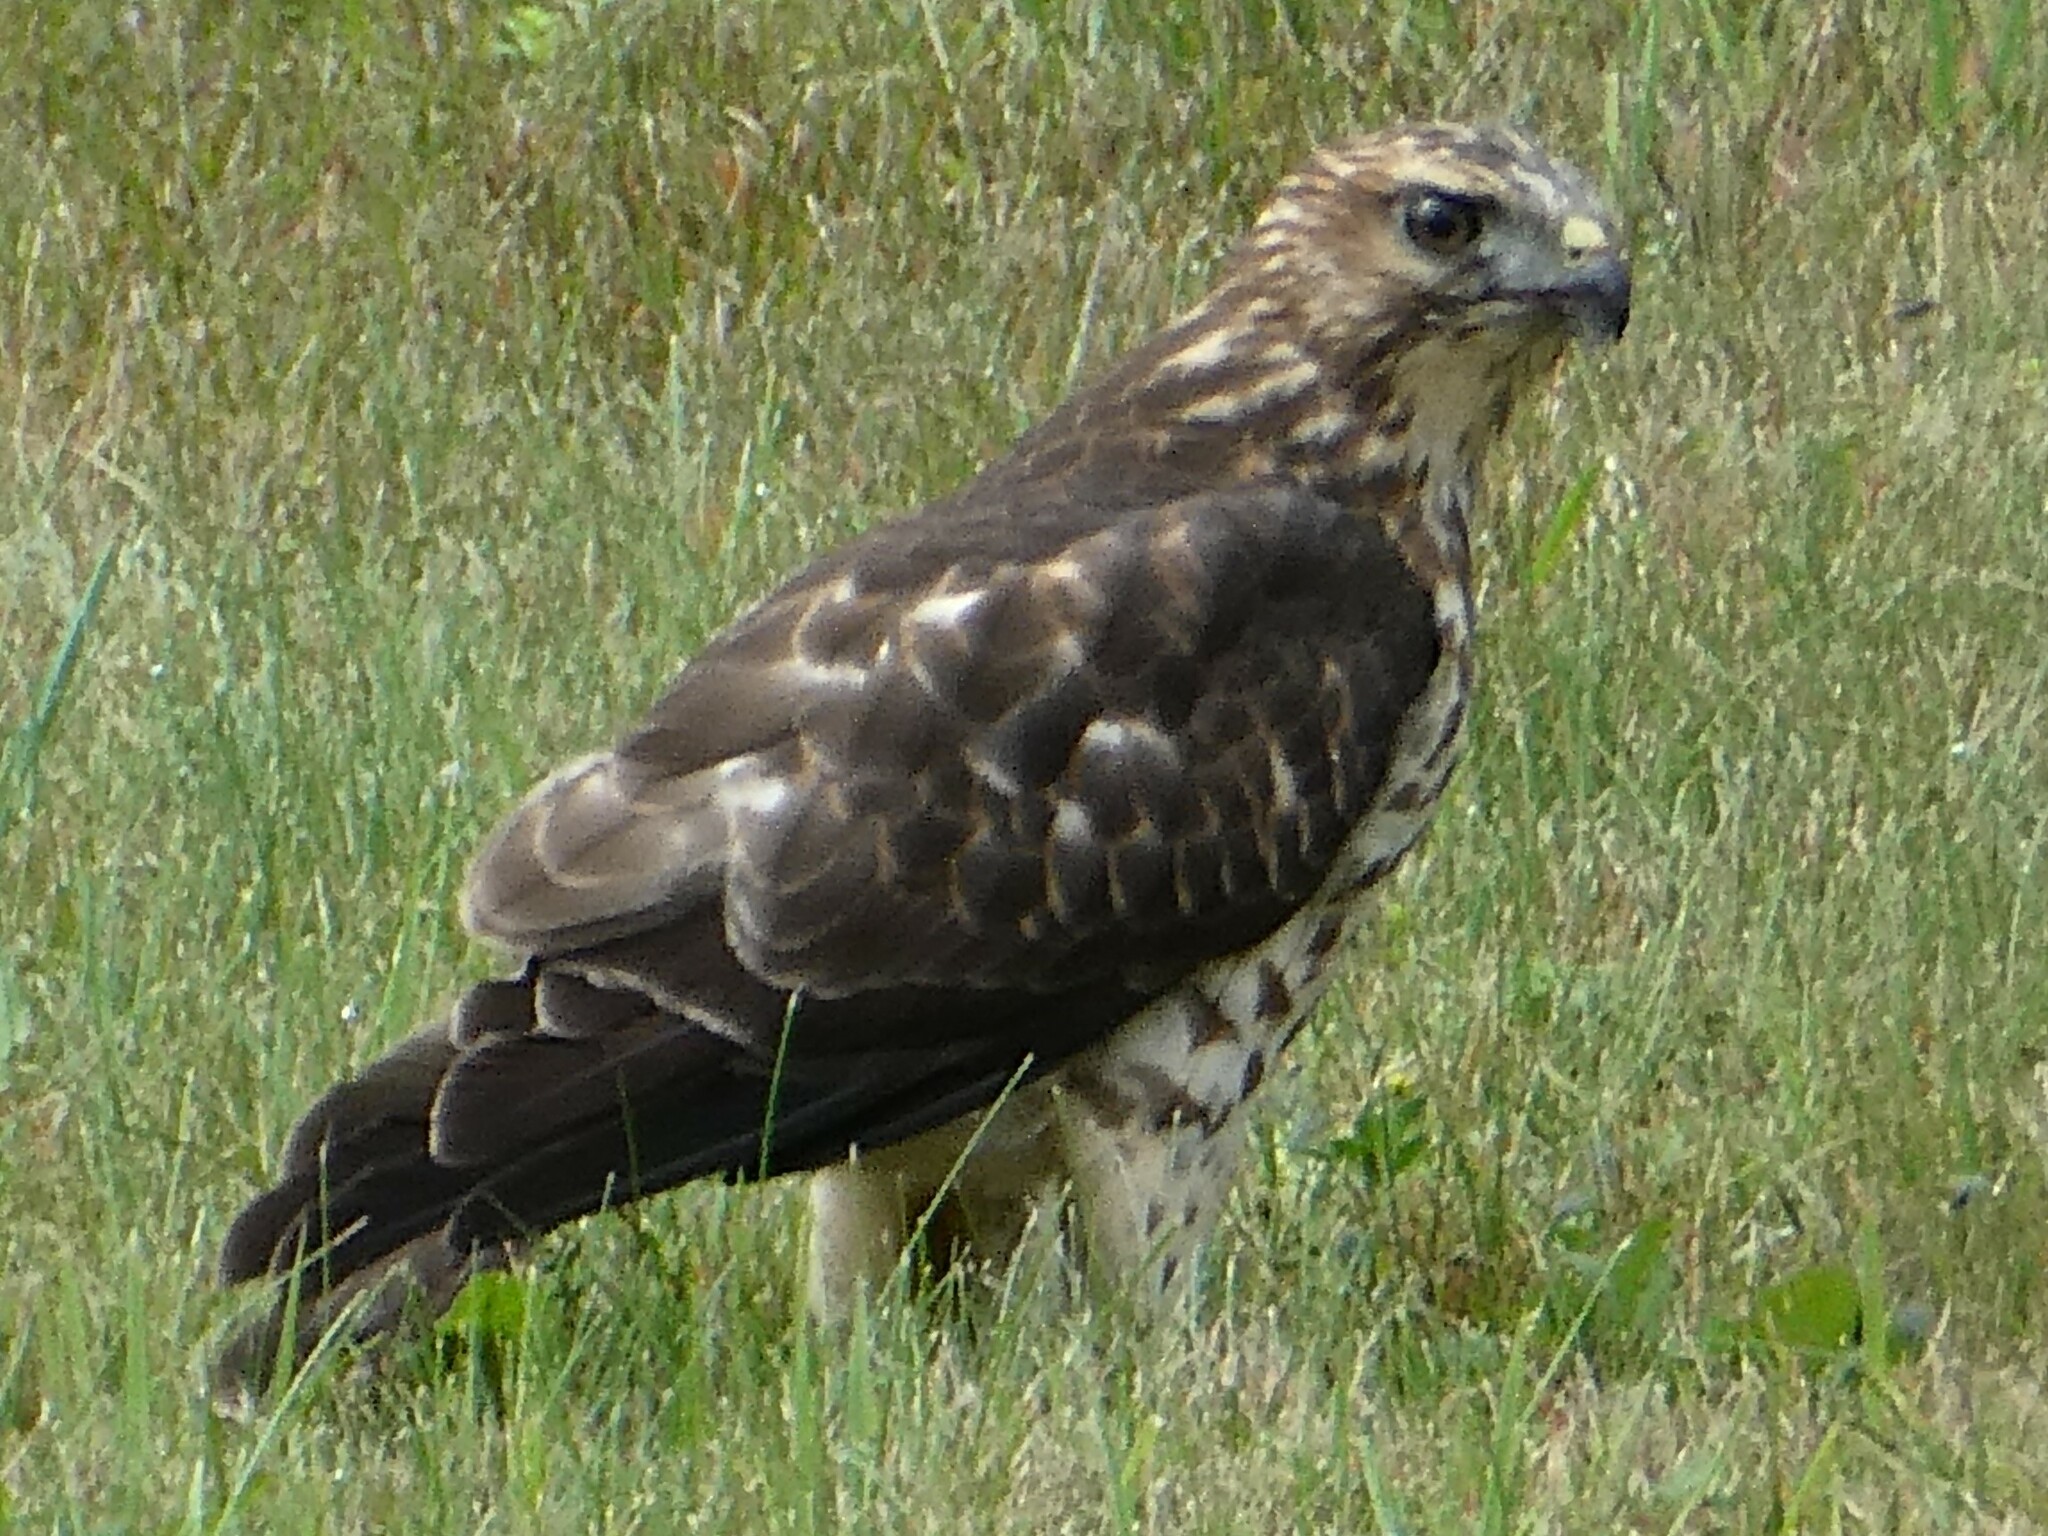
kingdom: Animalia
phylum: Chordata
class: Aves
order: Accipitriformes
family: Accipitridae
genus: Buteo
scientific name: Buteo platypterus
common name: Broad-winged hawk
